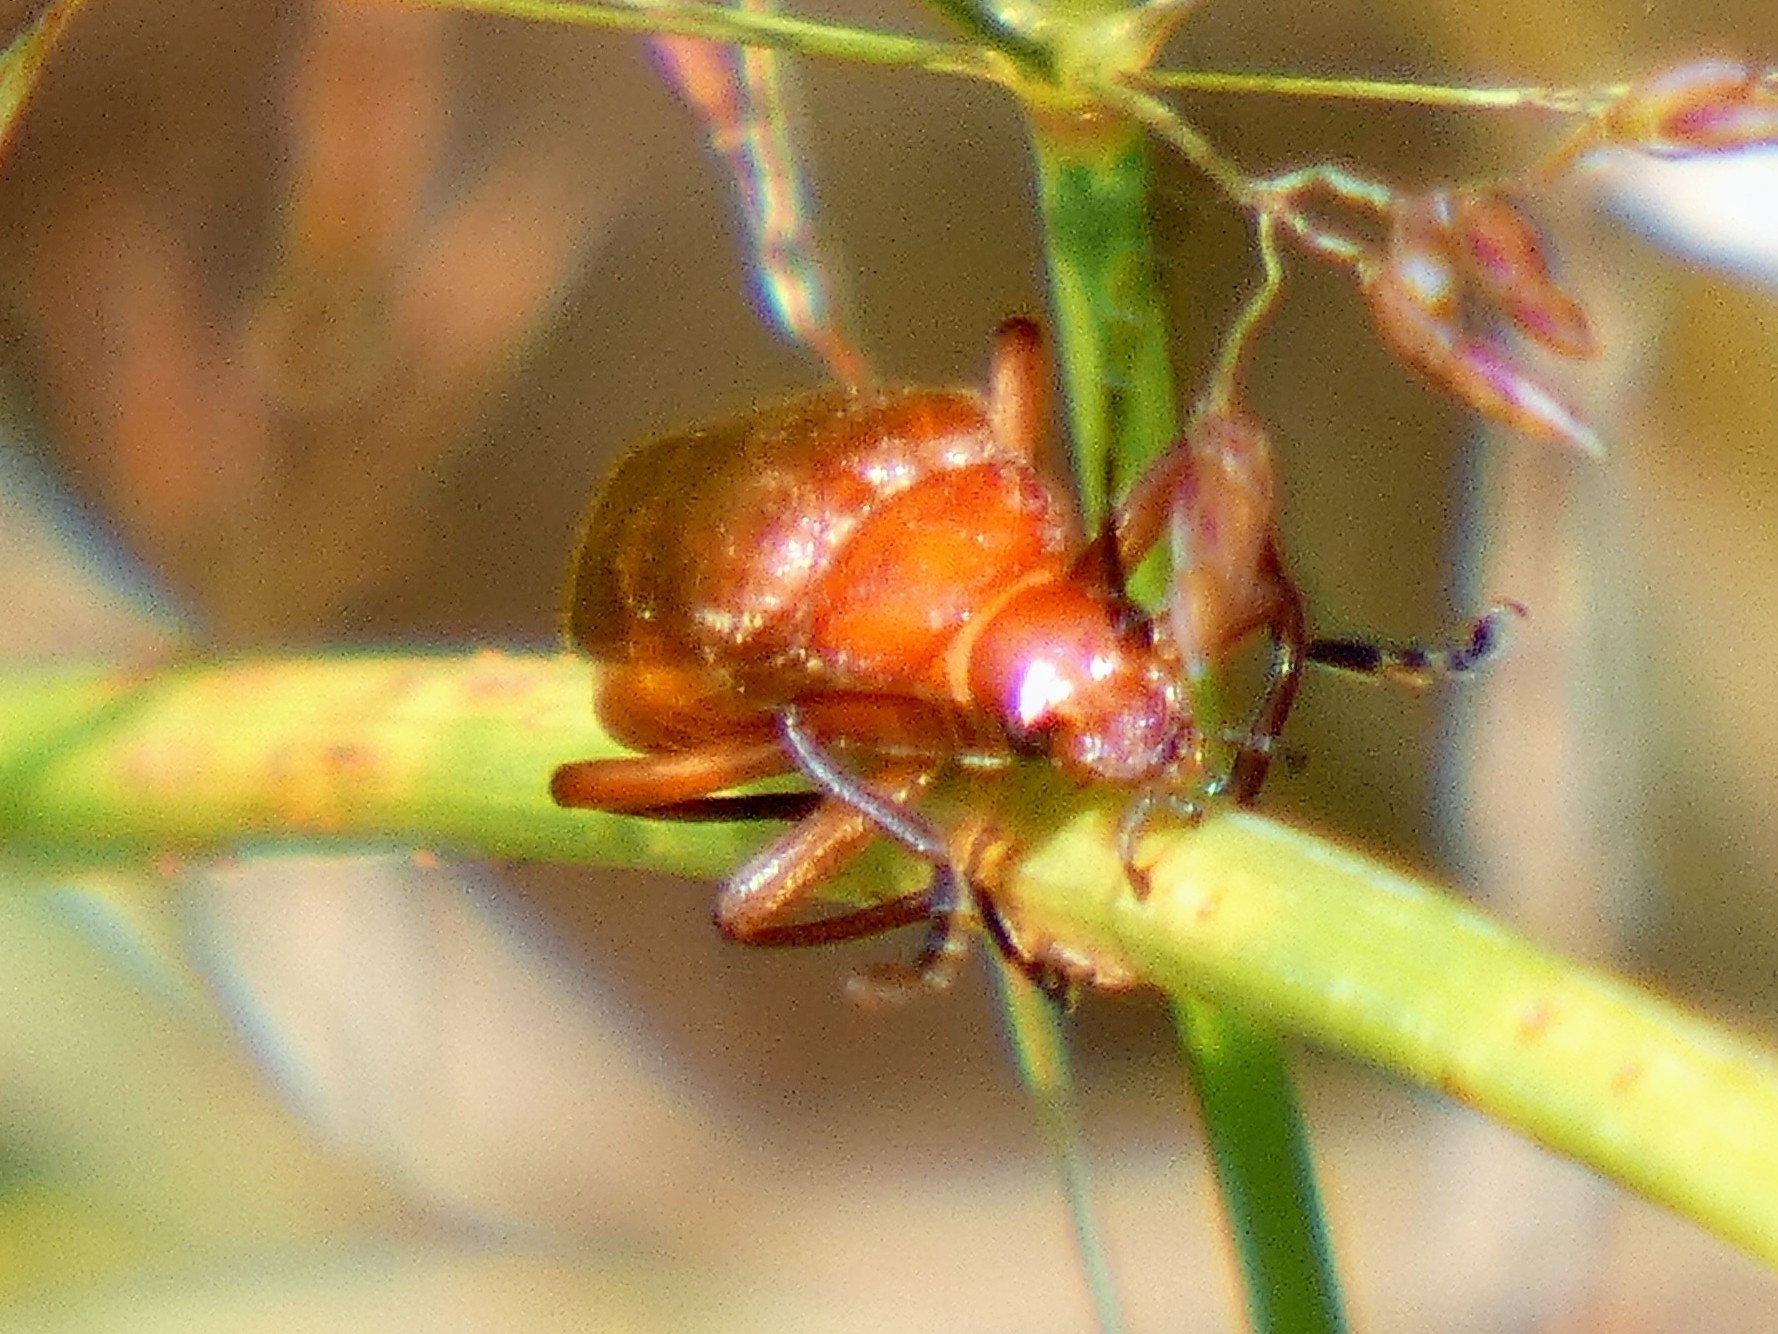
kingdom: Animalia
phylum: Arthropoda
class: Insecta
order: Coleoptera
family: Cantharidae
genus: Rhagonycha
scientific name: Rhagonycha fulva
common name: Common red soldier beetle
